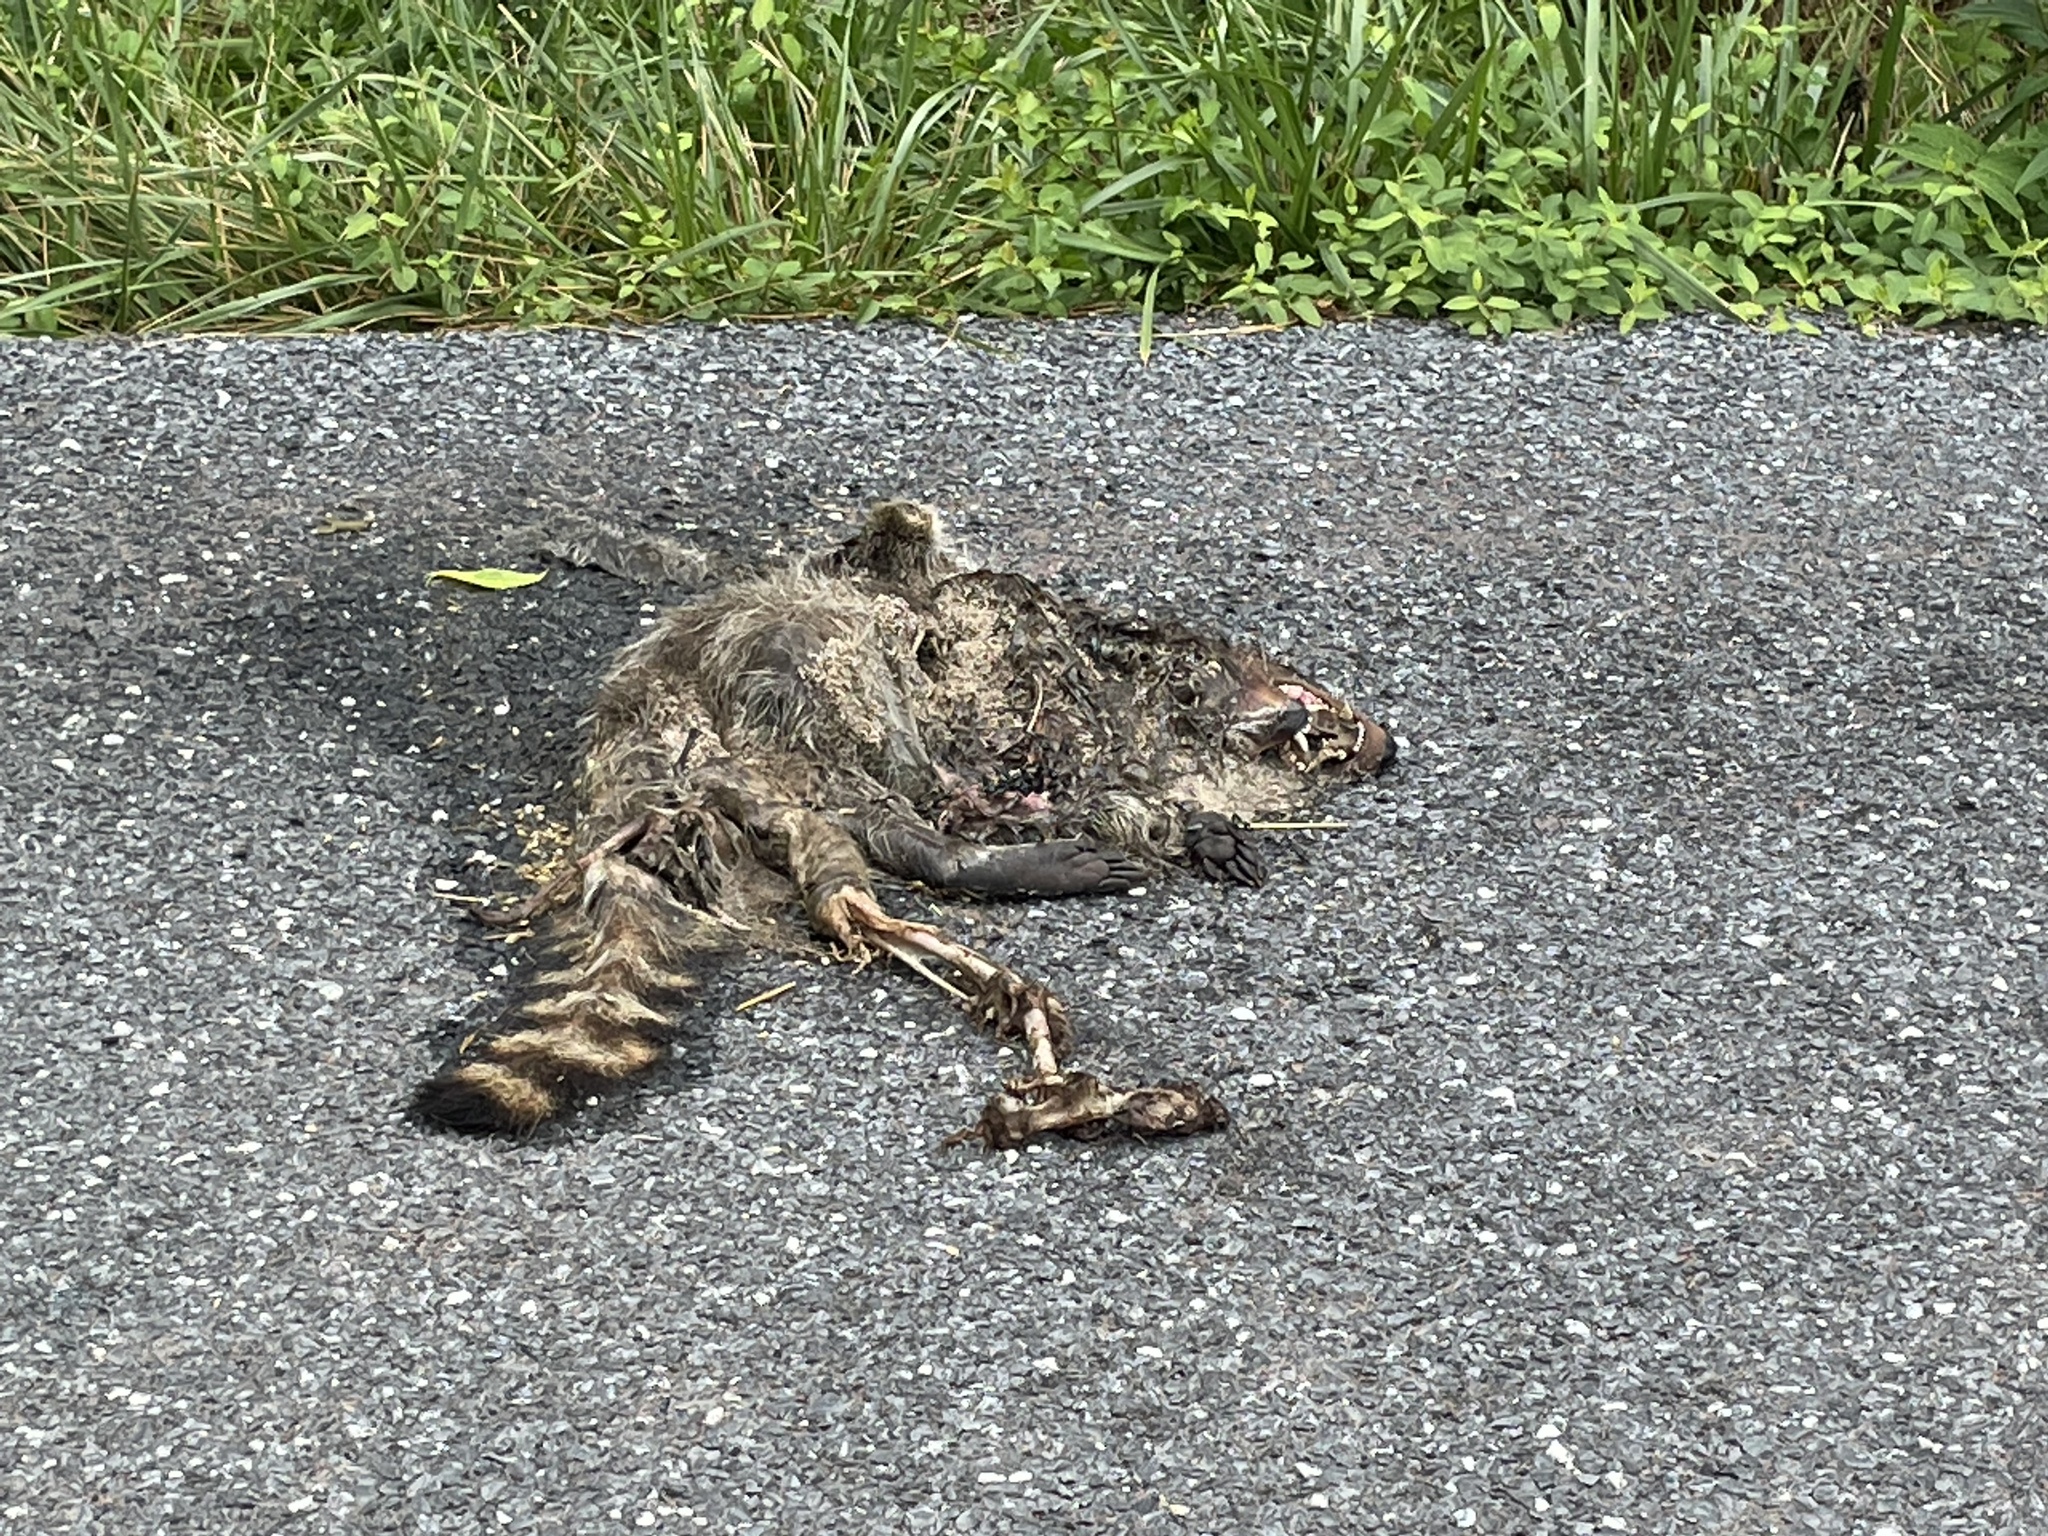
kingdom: Animalia
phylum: Chordata
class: Mammalia
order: Carnivora
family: Procyonidae
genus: Procyon
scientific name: Procyon lotor
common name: Raccoon
